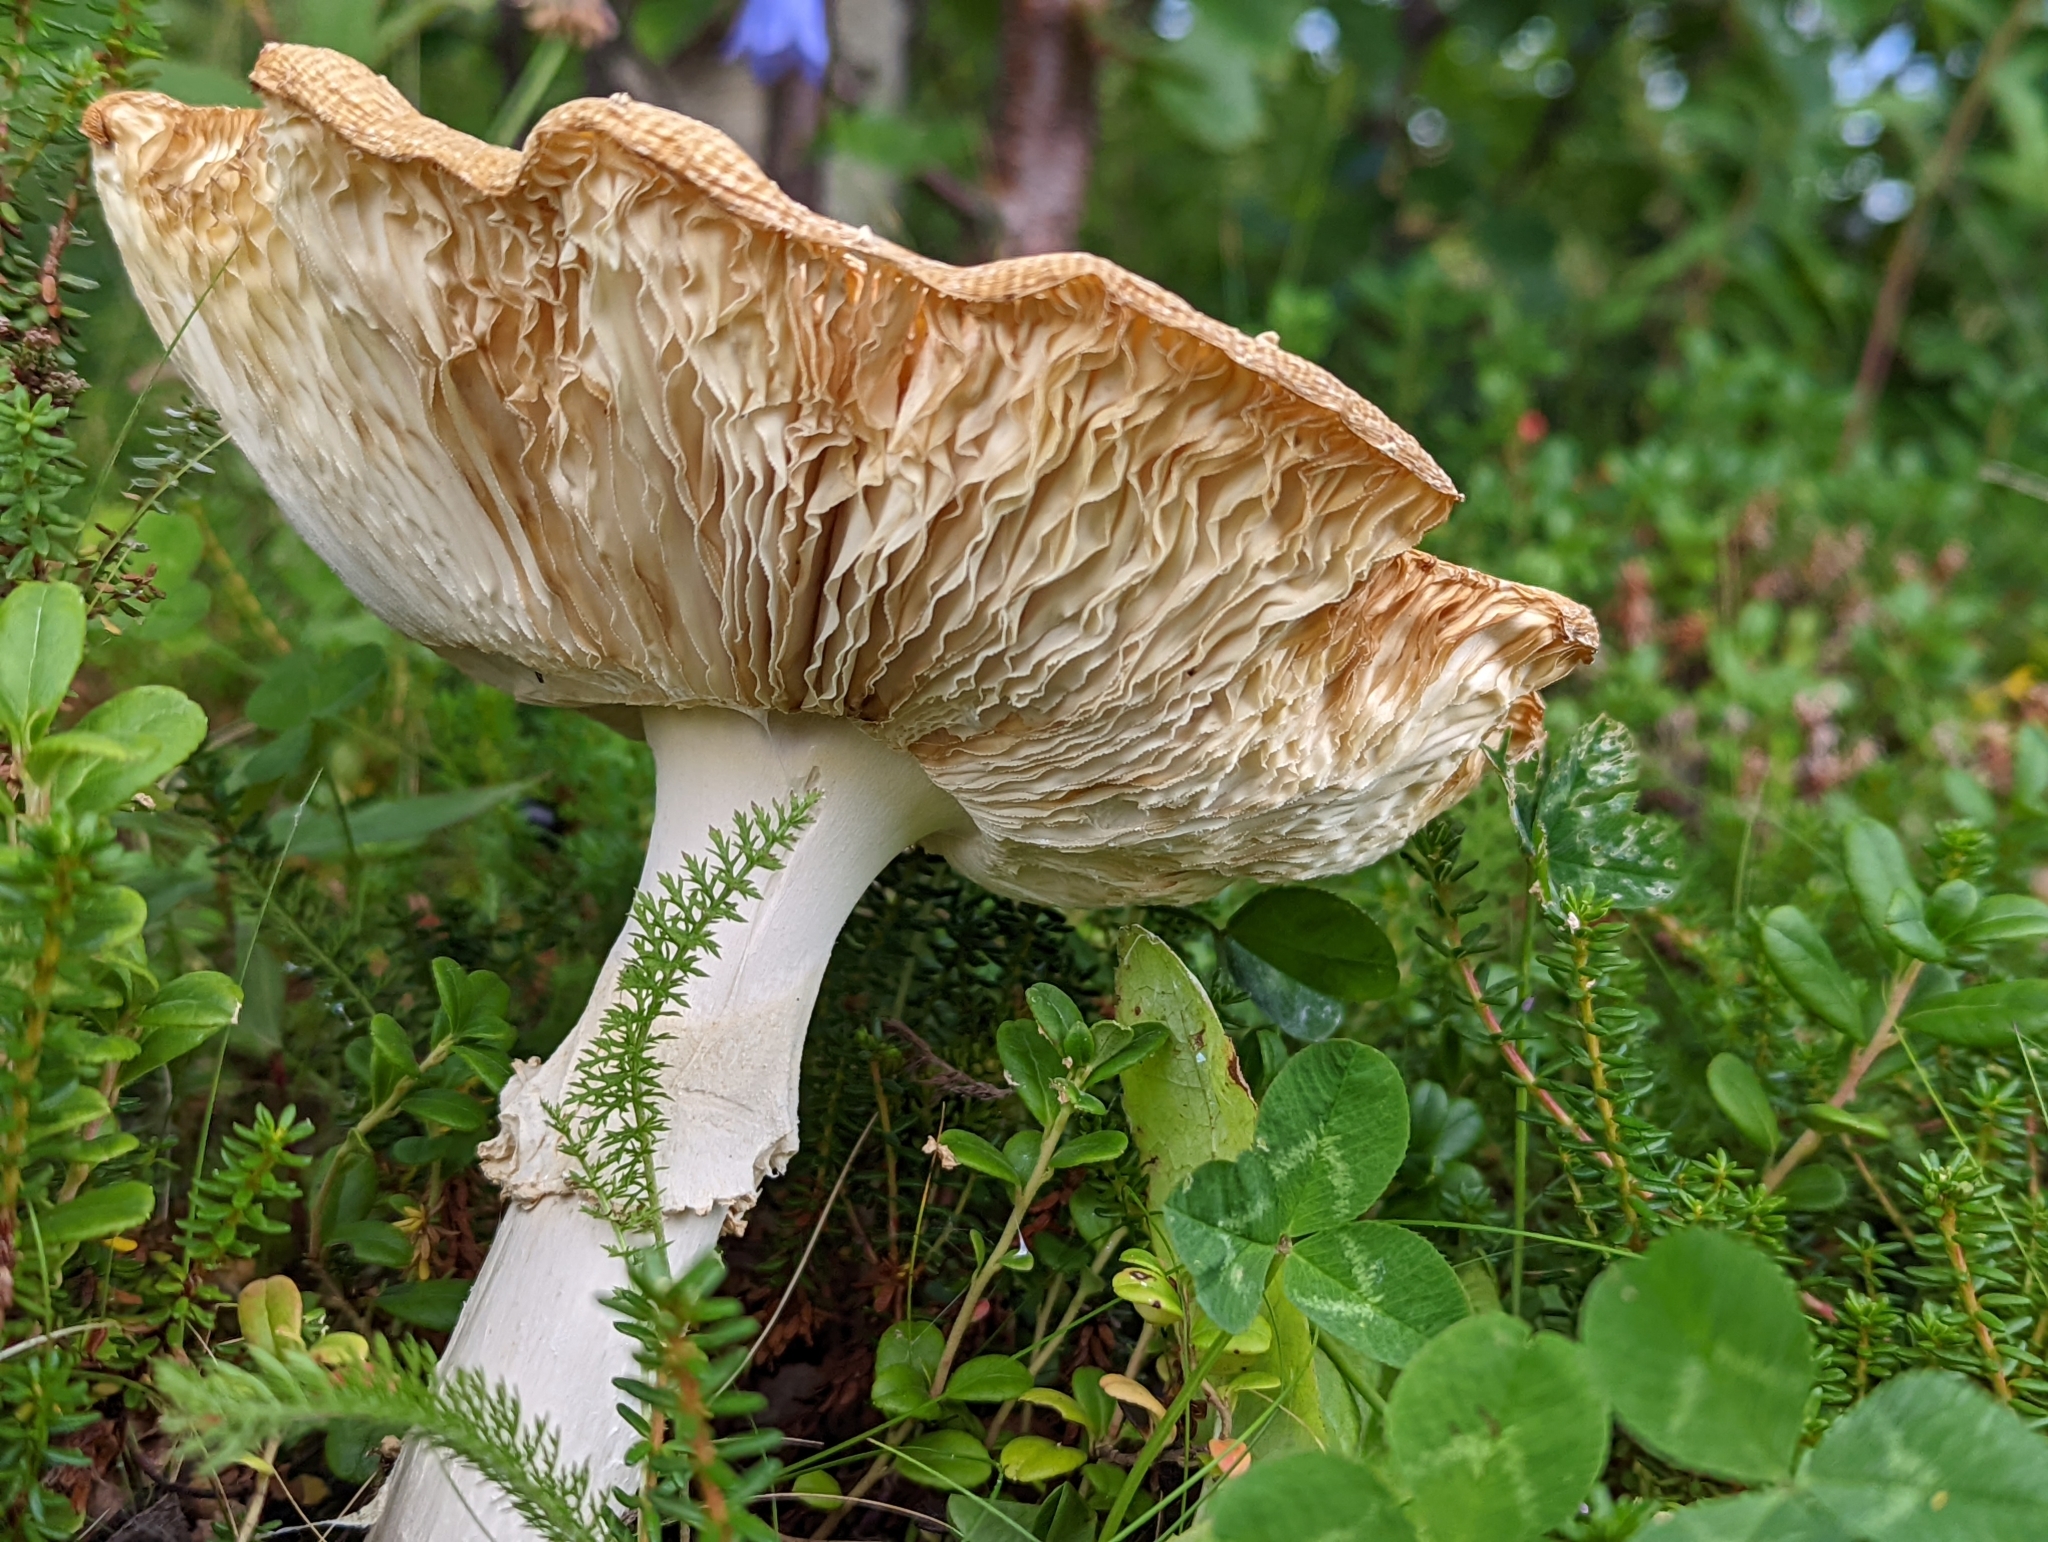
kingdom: Fungi
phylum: Basidiomycota
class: Agaricomycetes
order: Agaricales
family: Amanitaceae
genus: Amanita
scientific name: Amanita muscaria
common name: Fly agaric
